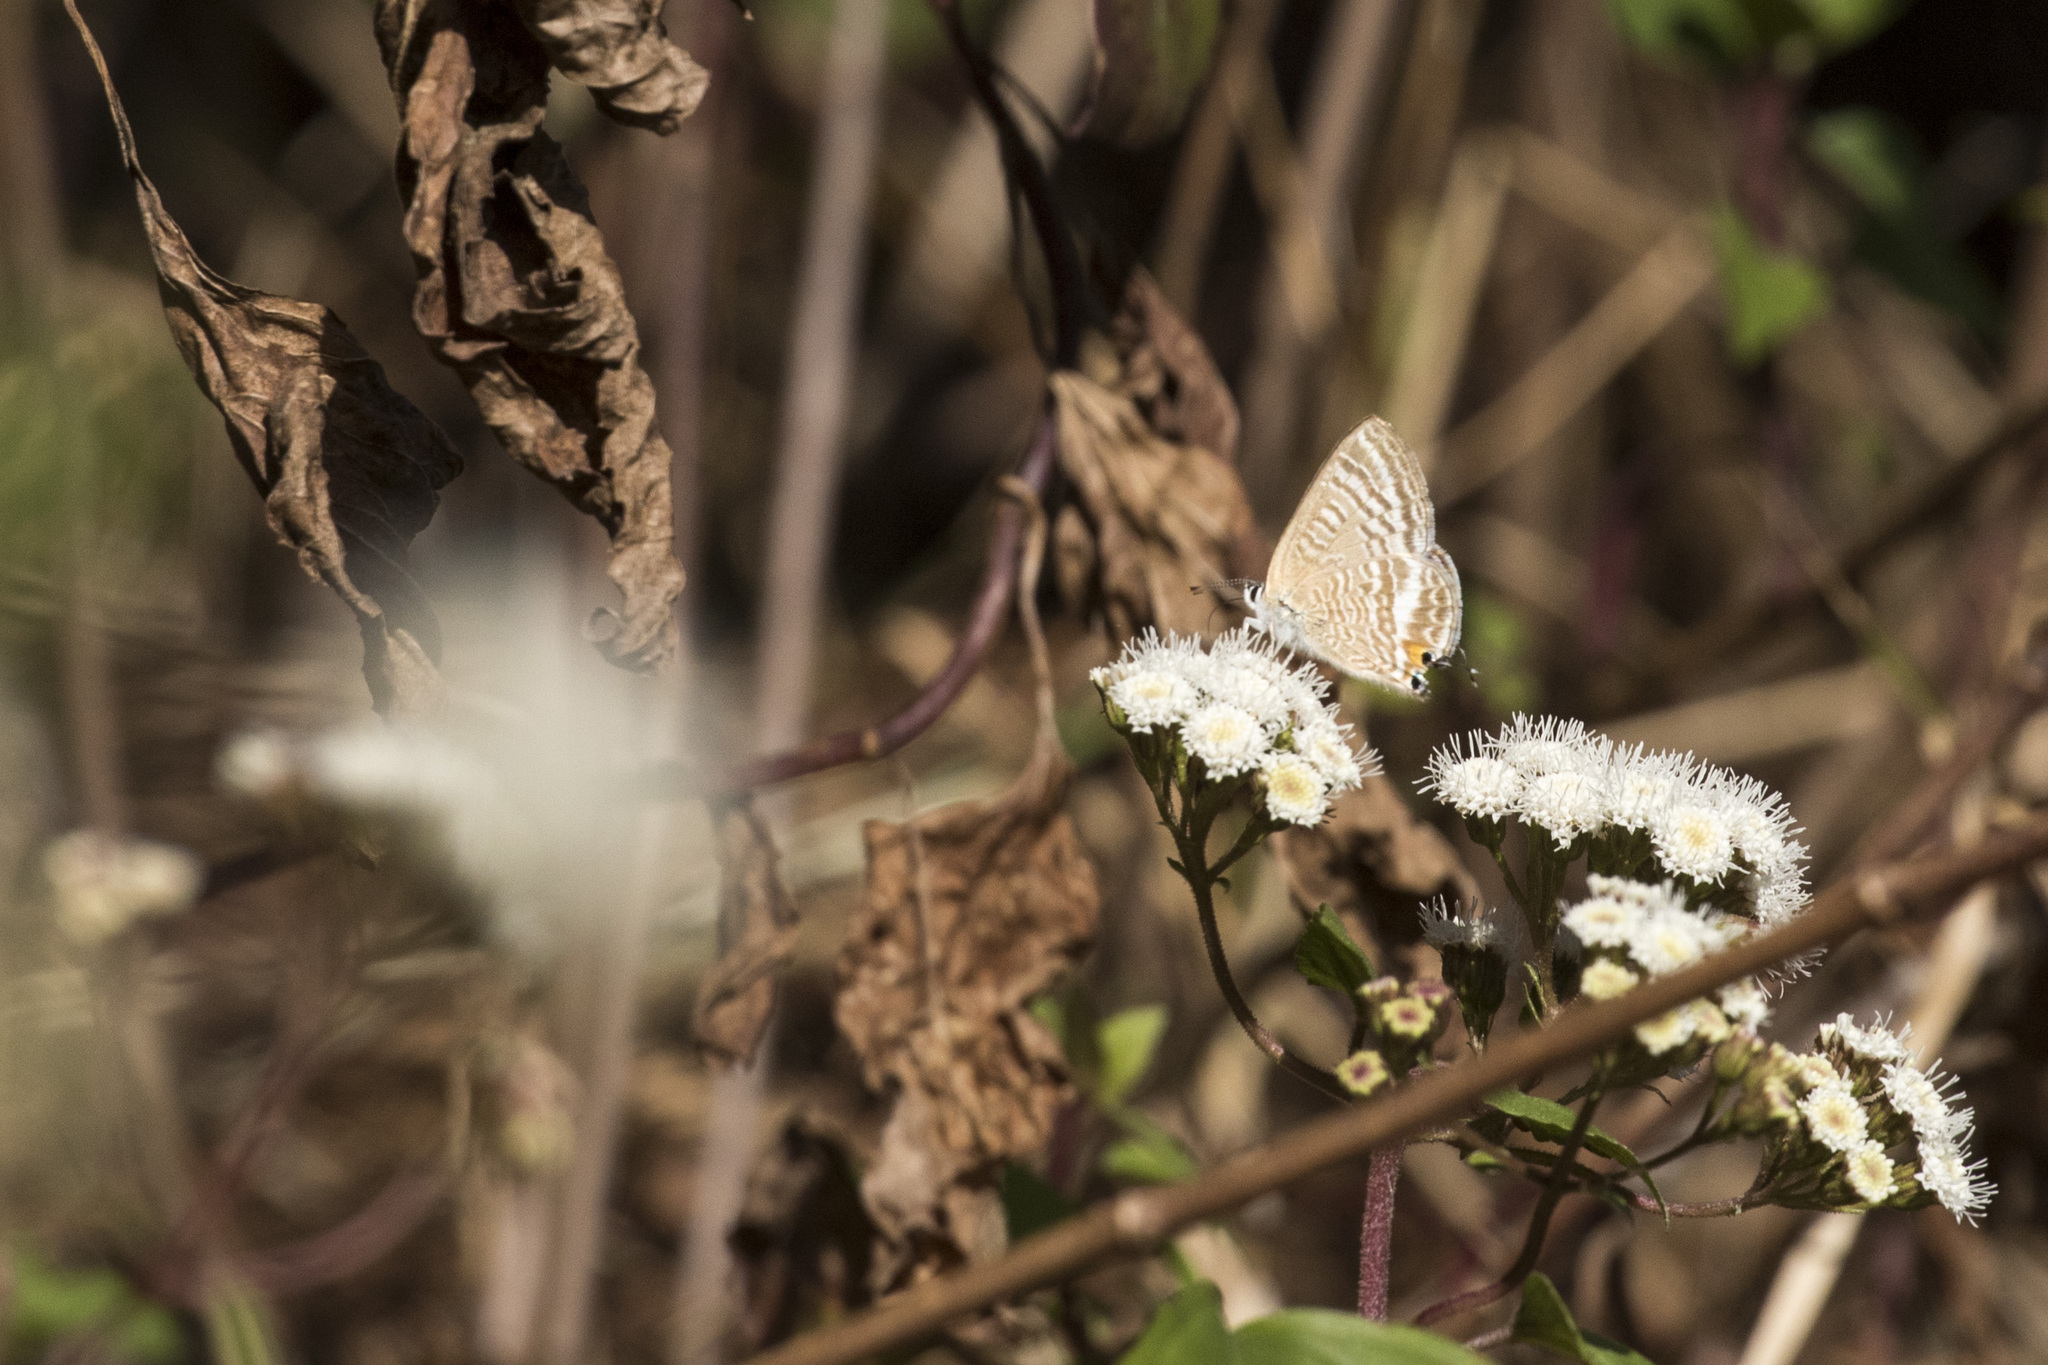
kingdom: Animalia
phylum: Arthropoda
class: Insecta
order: Lepidoptera
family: Lycaenidae
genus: Lampides
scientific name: Lampides boeticus
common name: Long-tailed blue
